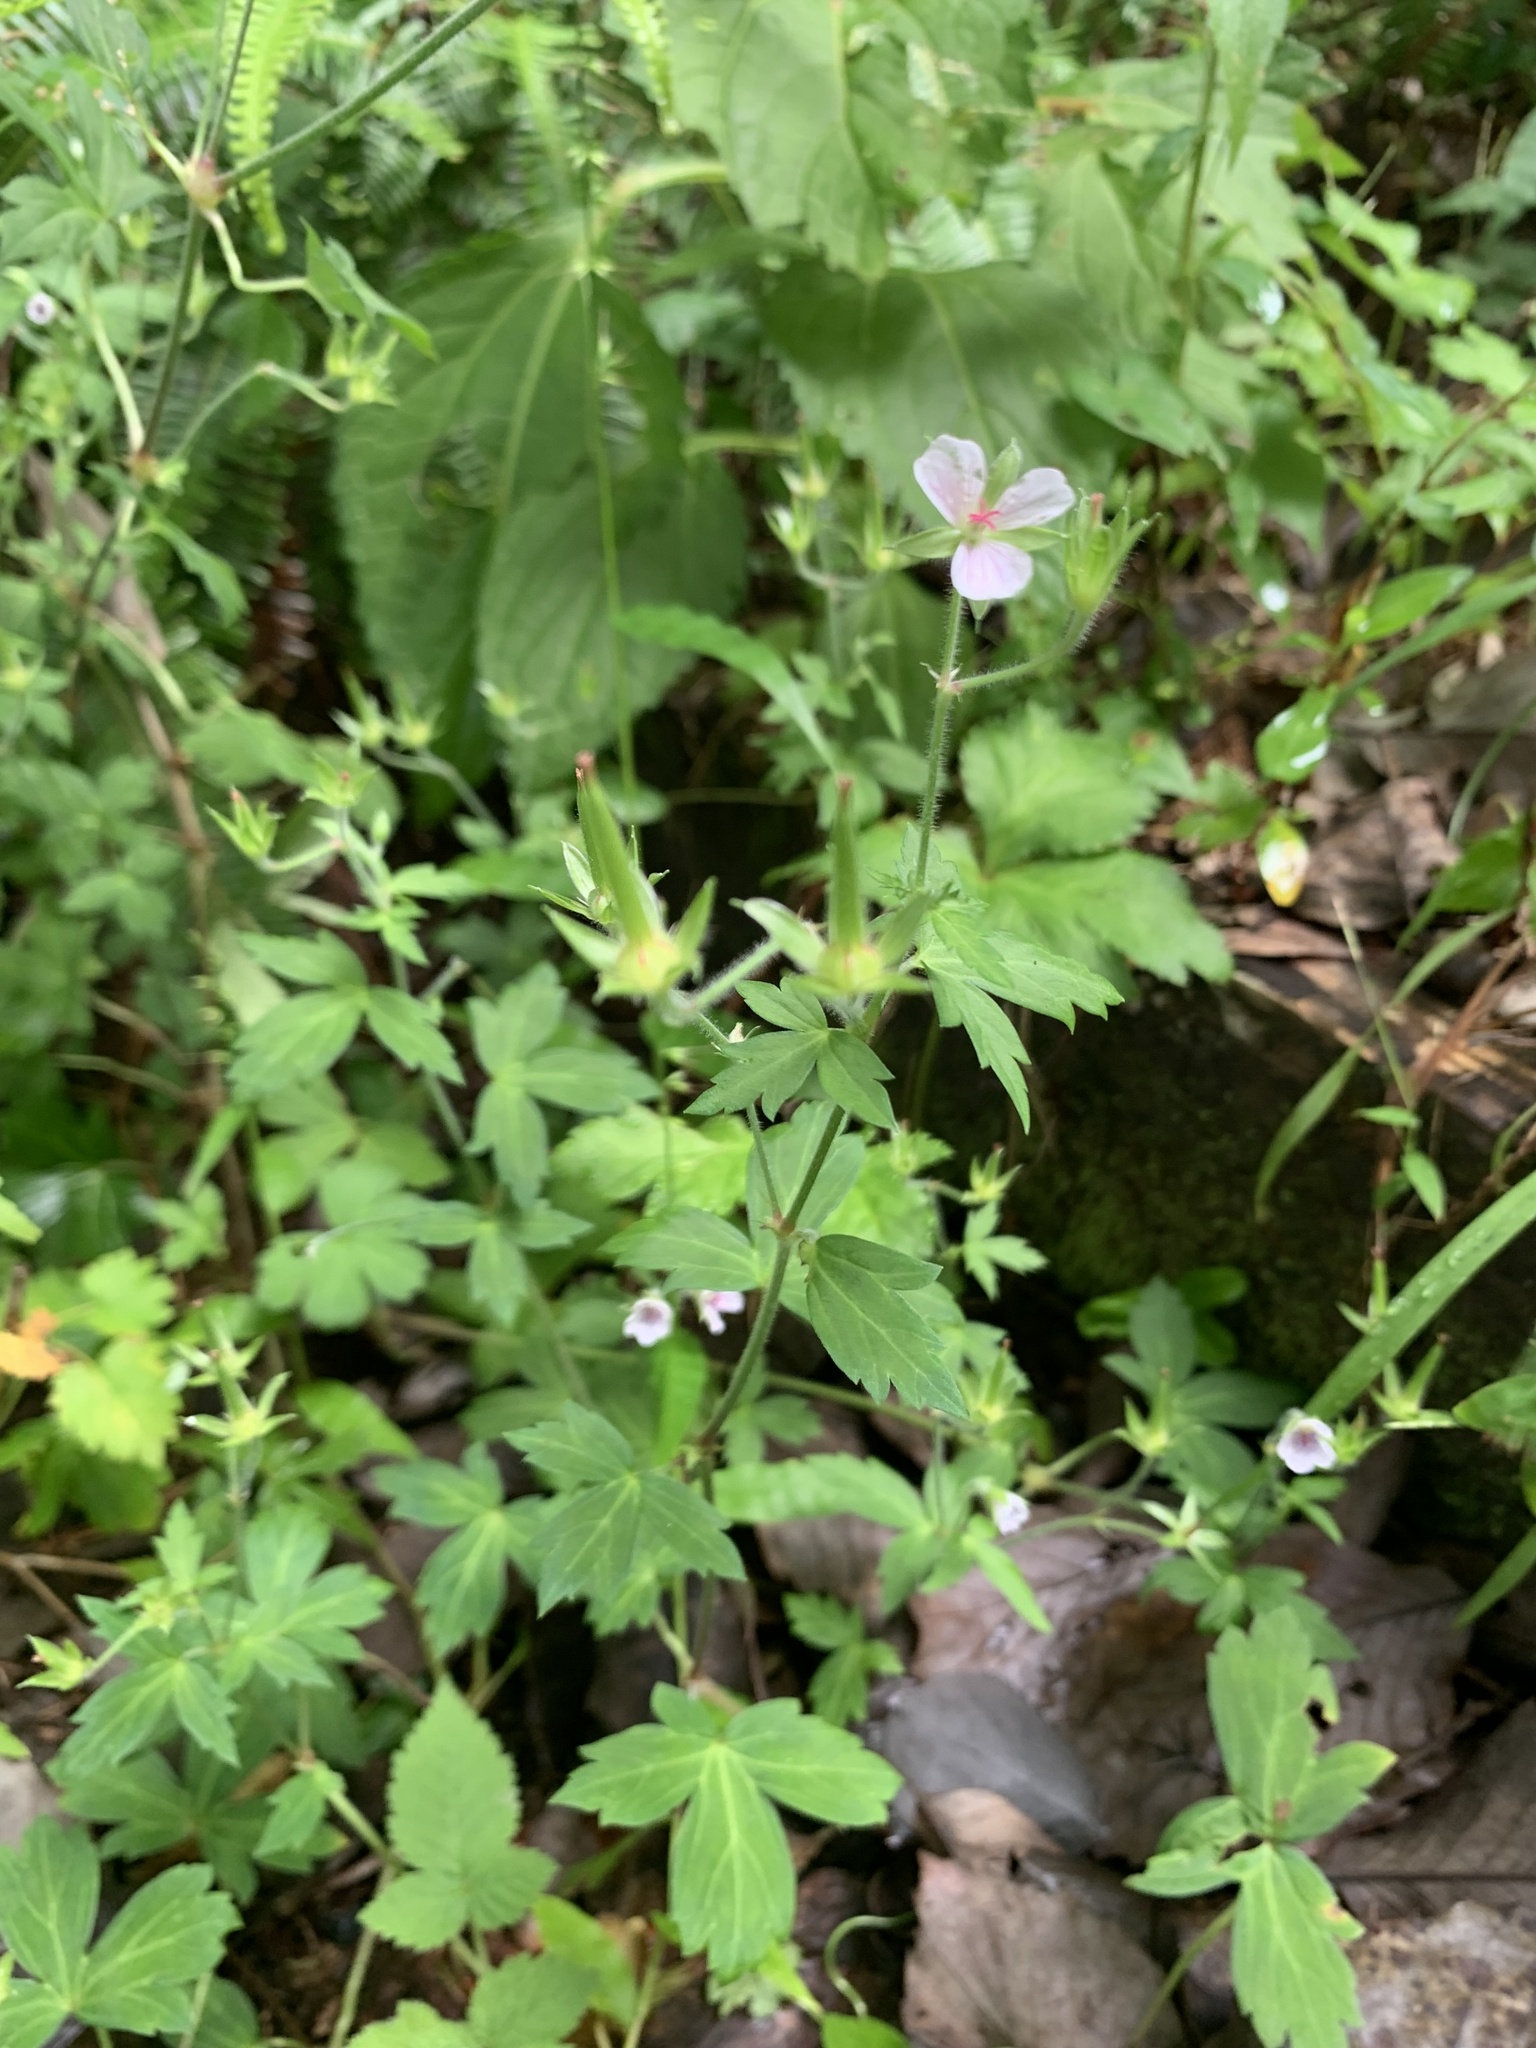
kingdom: Plantae
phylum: Tracheophyta
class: Magnoliopsida
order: Geraniales
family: Geraniaceae
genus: Geranium
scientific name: Geranium thunbergii
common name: Dewdrop crane's-bill
